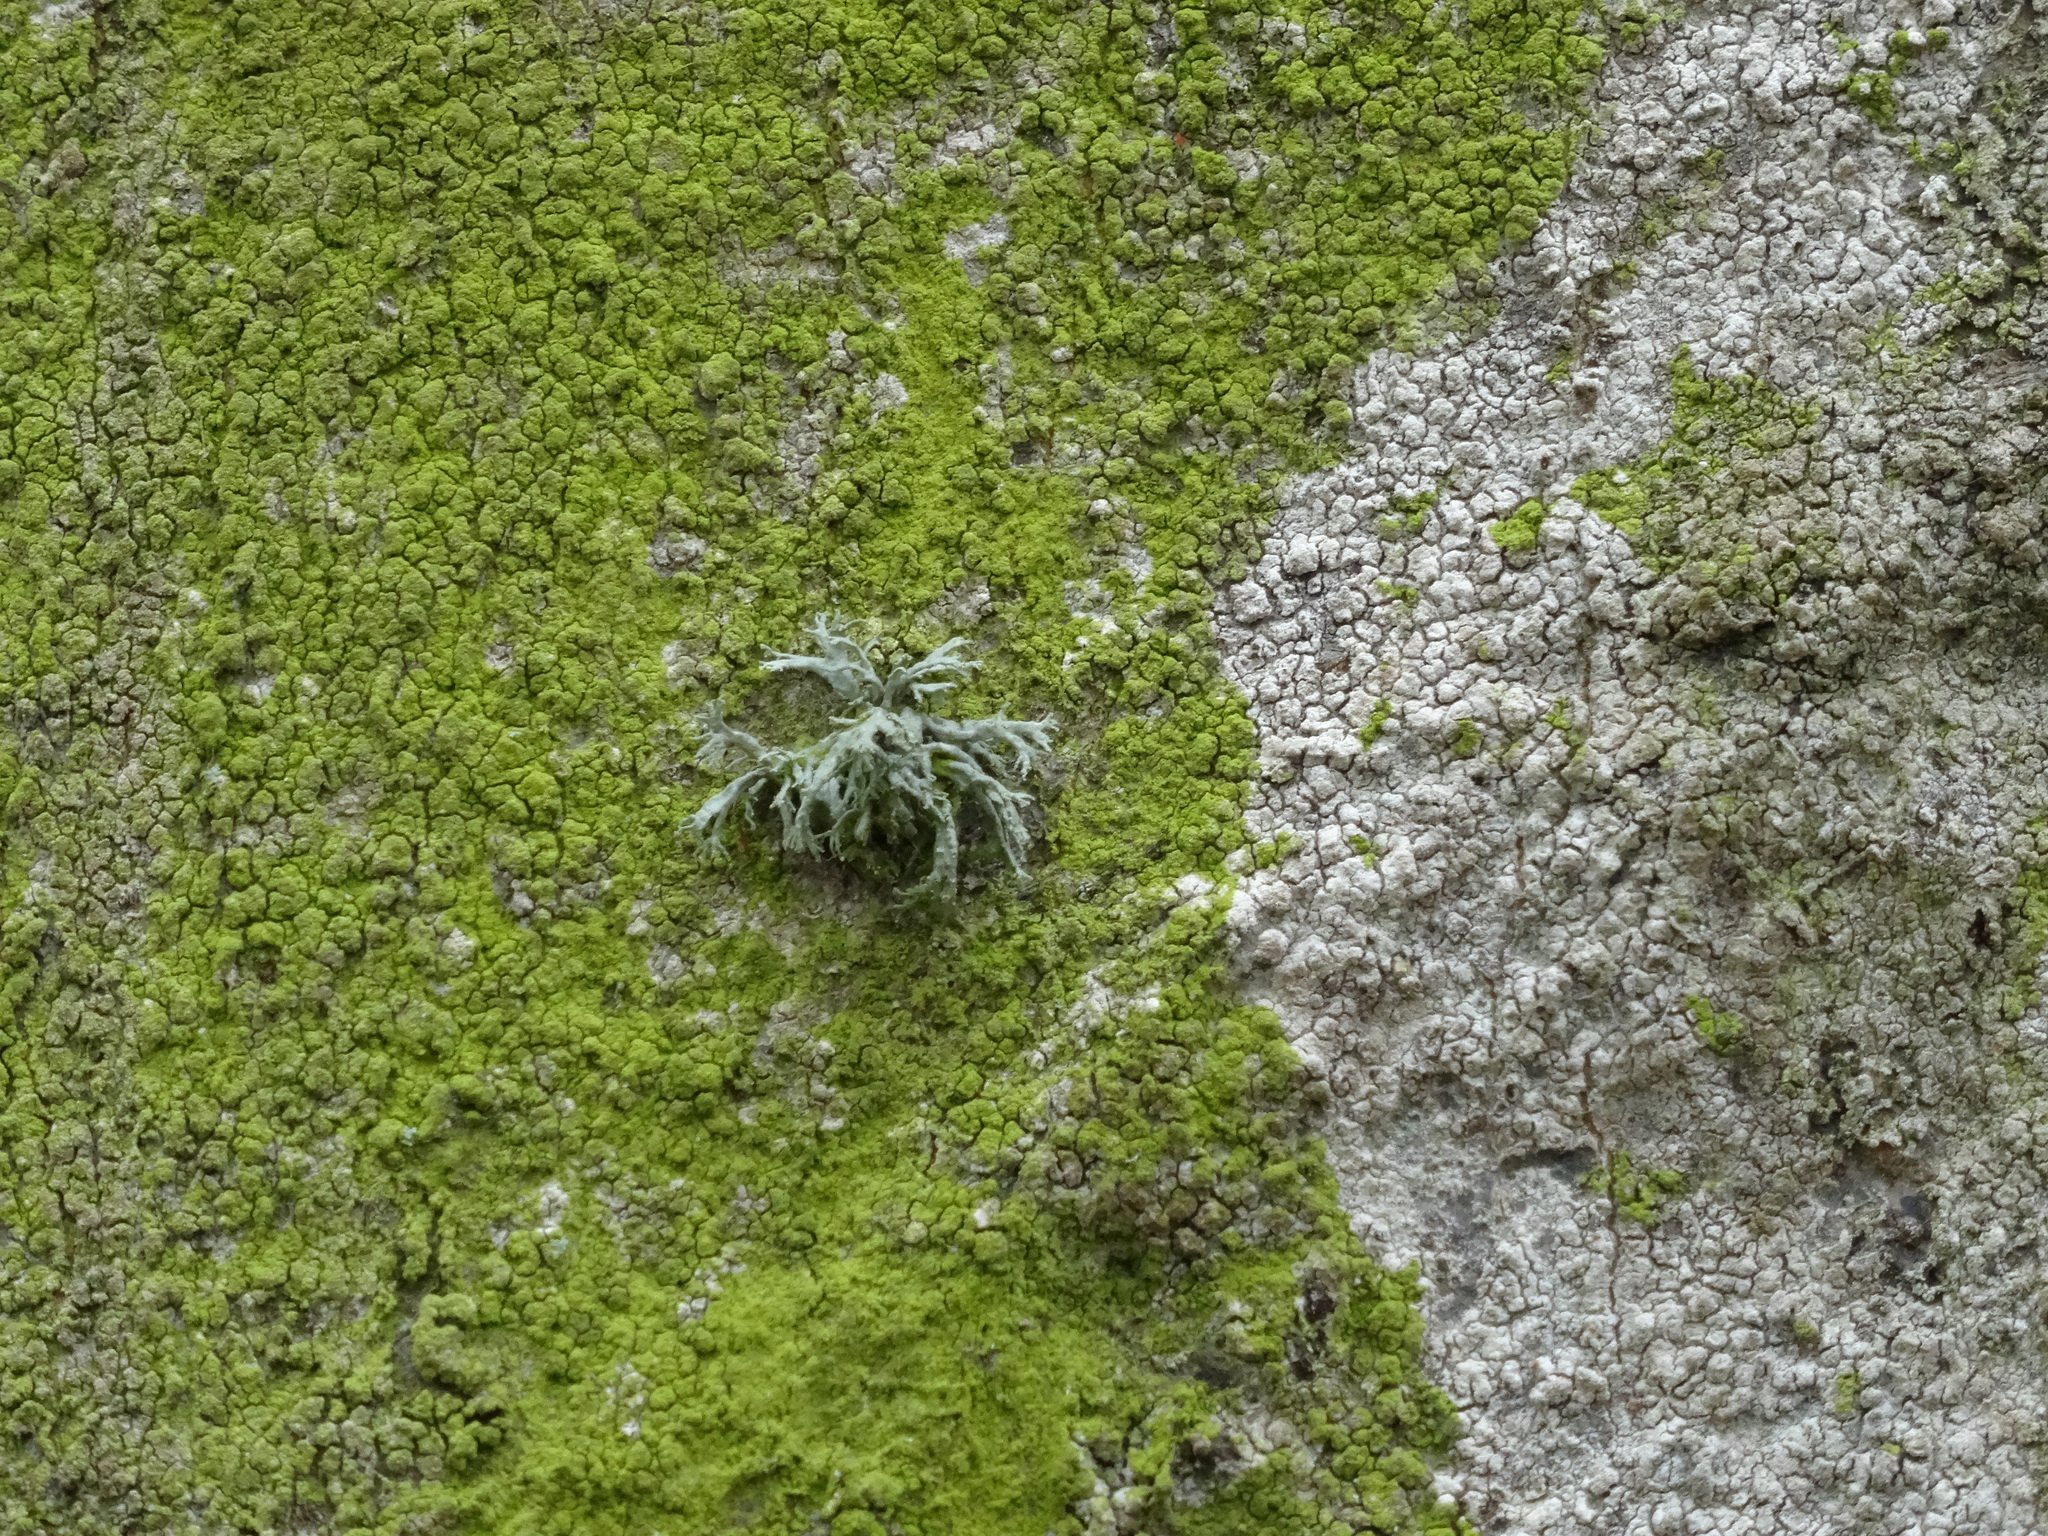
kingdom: Fungi
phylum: Ascomycota
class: Lecanoromycetes
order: Lecanorales
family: Ramalinaceae
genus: Ramalina
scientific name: Ramalina farinacea
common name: Farinose cartilage lichen
